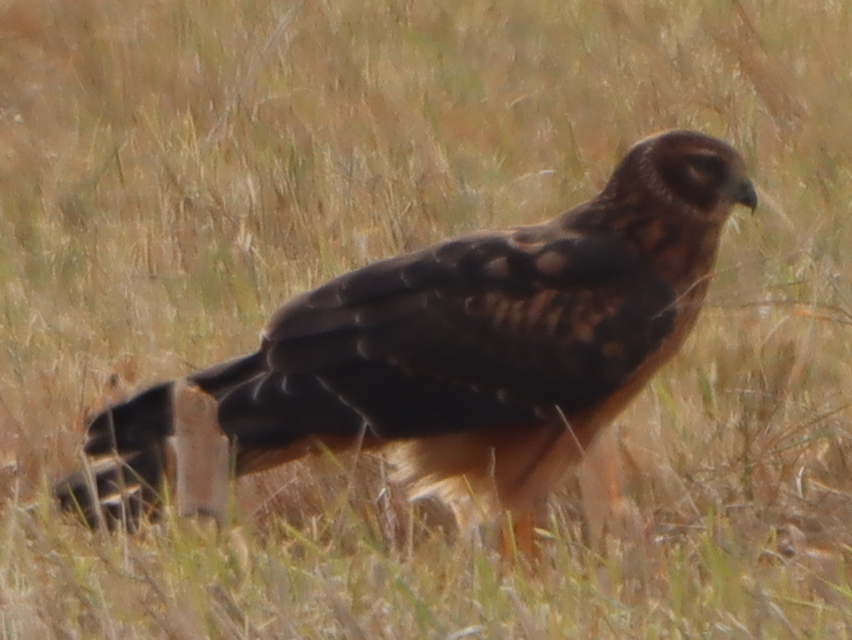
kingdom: Animalia
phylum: Chordata
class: Aves
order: Accipitriformes
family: Accipitridae
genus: Circus
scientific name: Circus cyaneus
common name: Hen harrier
